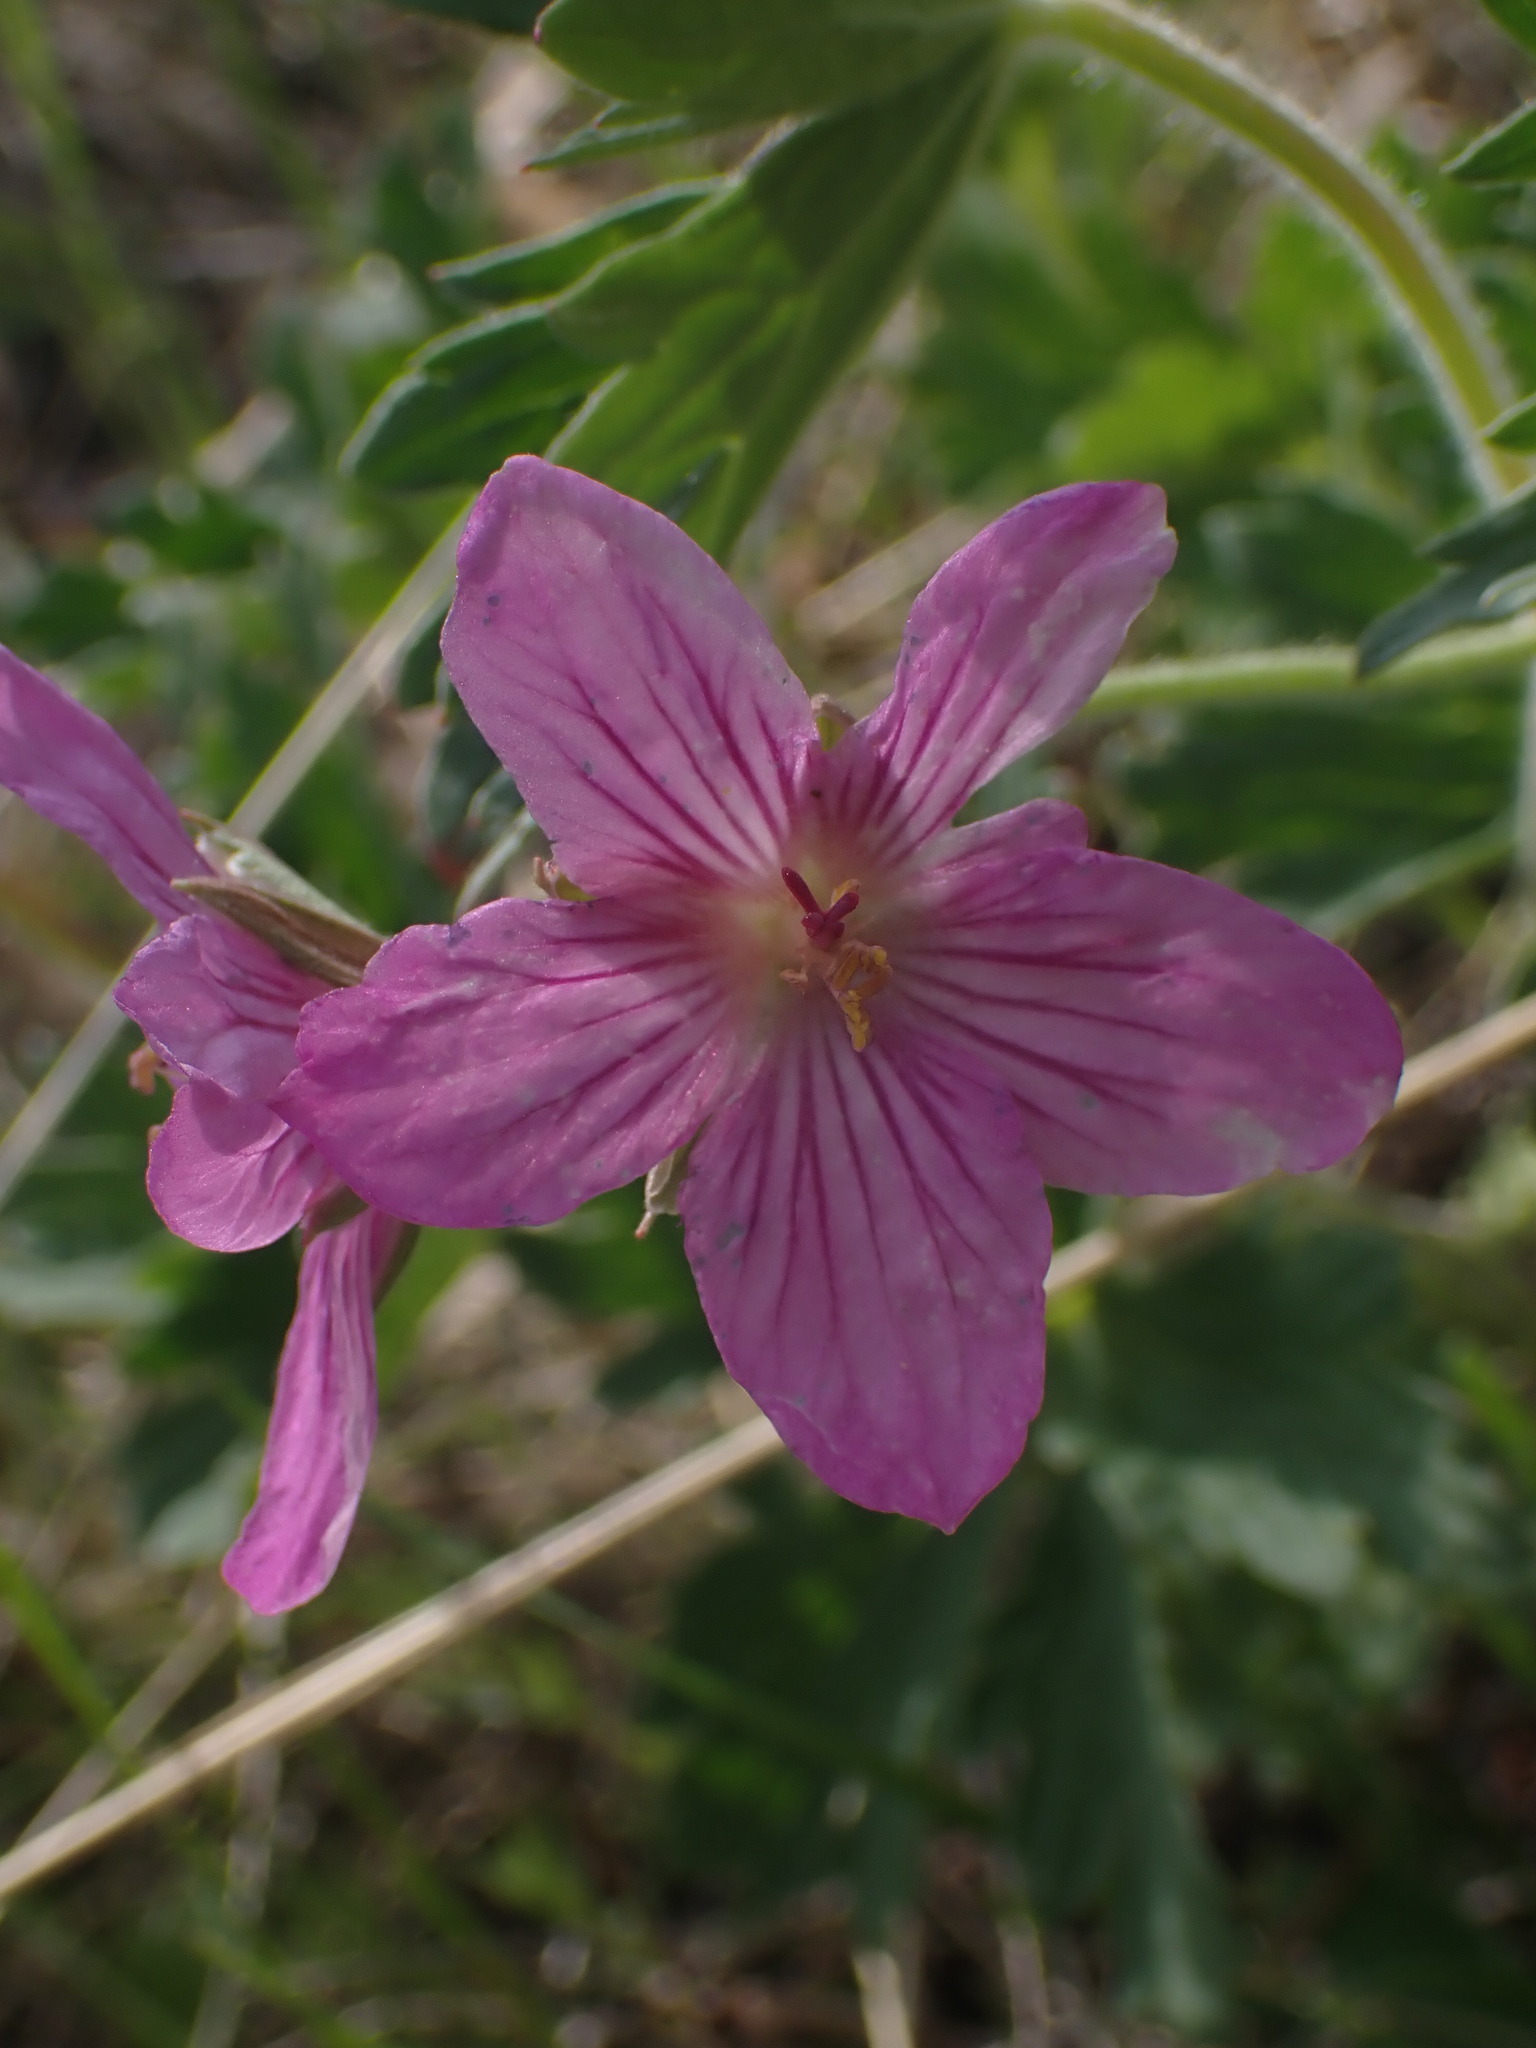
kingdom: Plantae
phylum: Tracheophyta
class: Magnoliopsida
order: Geraniales
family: Geraniaceae
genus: Geranium
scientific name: Geranium viscosissimum
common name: Purple geranium
